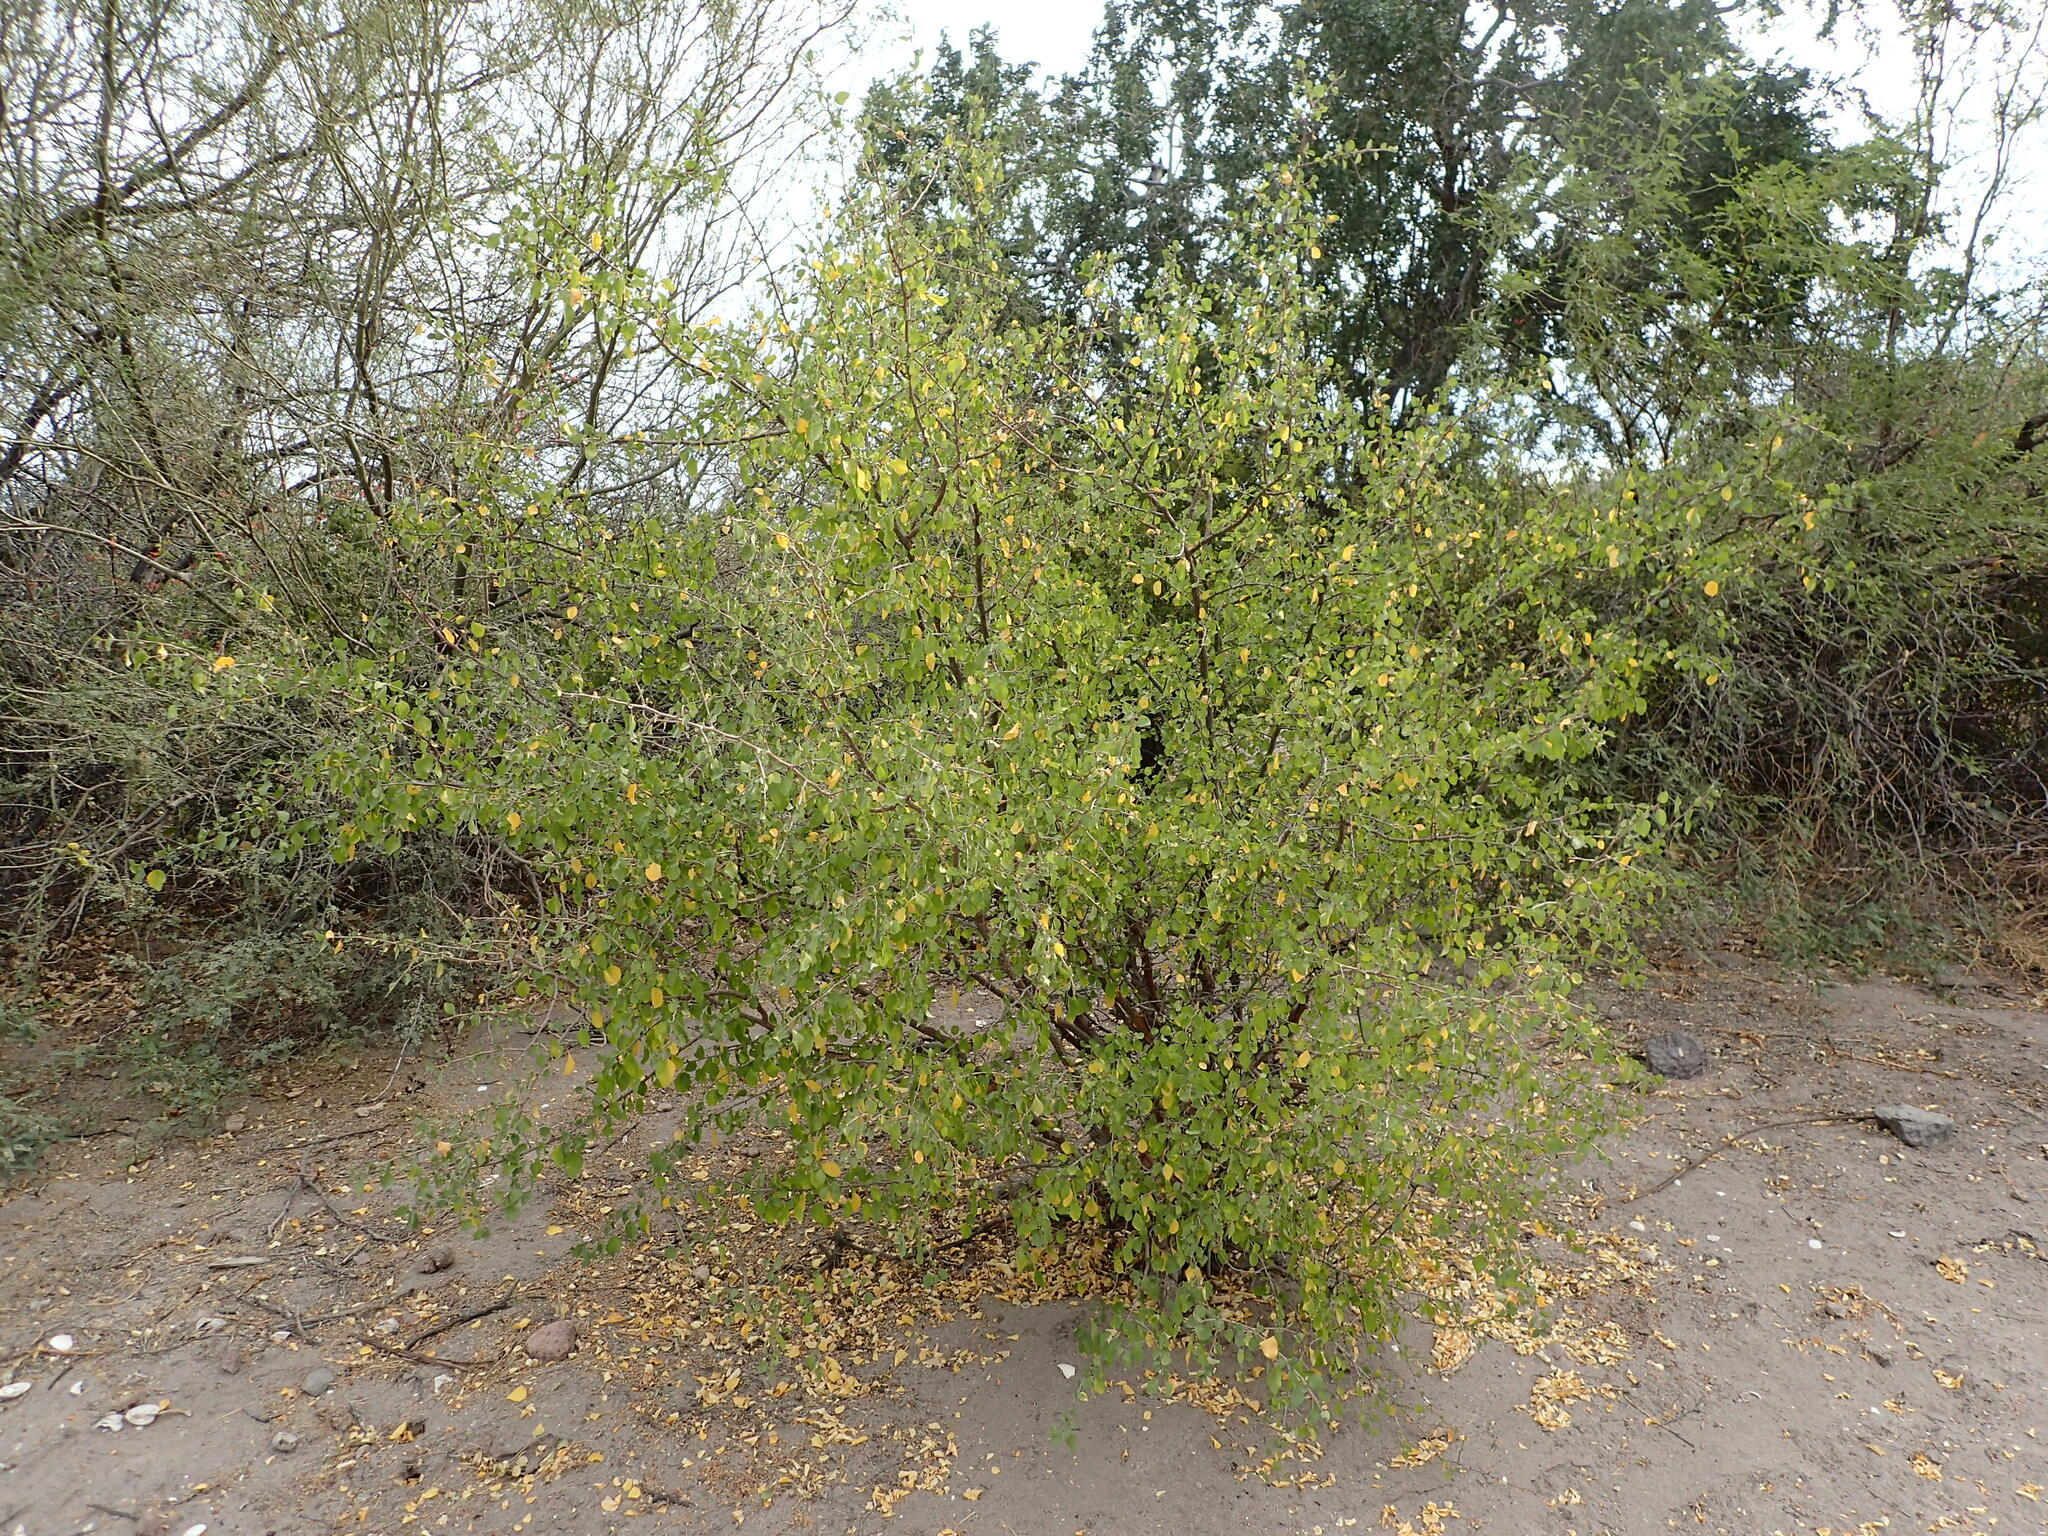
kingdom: Plantae
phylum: Tracheophyta
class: Magnoliopsida
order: Rosales
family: Rhamnaceae
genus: Colubrina
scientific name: Colubrina viridis
